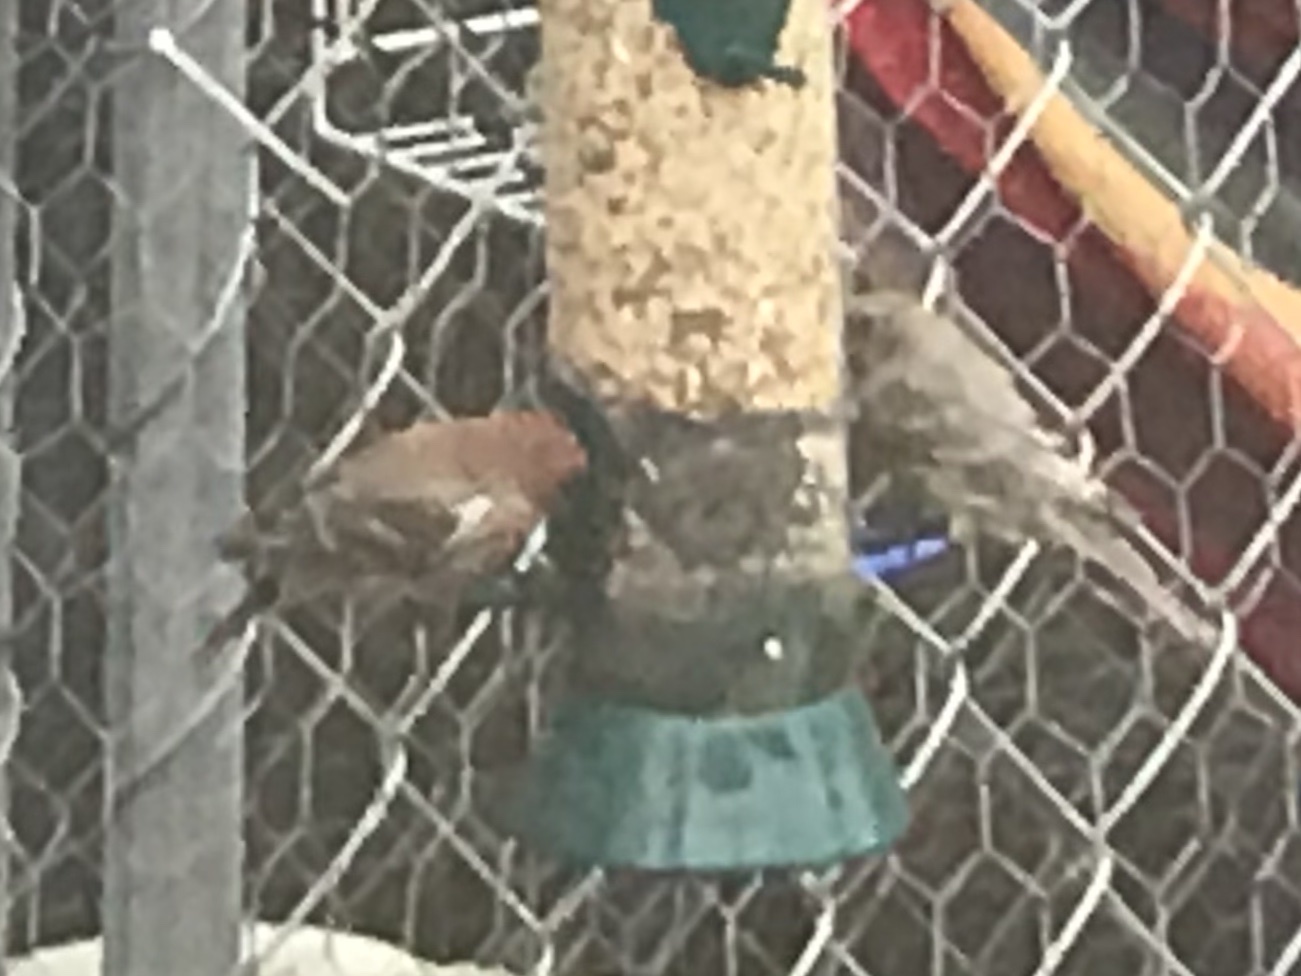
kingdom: Animalia
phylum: Chordata
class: Aves
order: Passeriformes
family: Fringillidae
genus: Haemorhous
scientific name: Haemorhous mexicanus
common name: House finch
